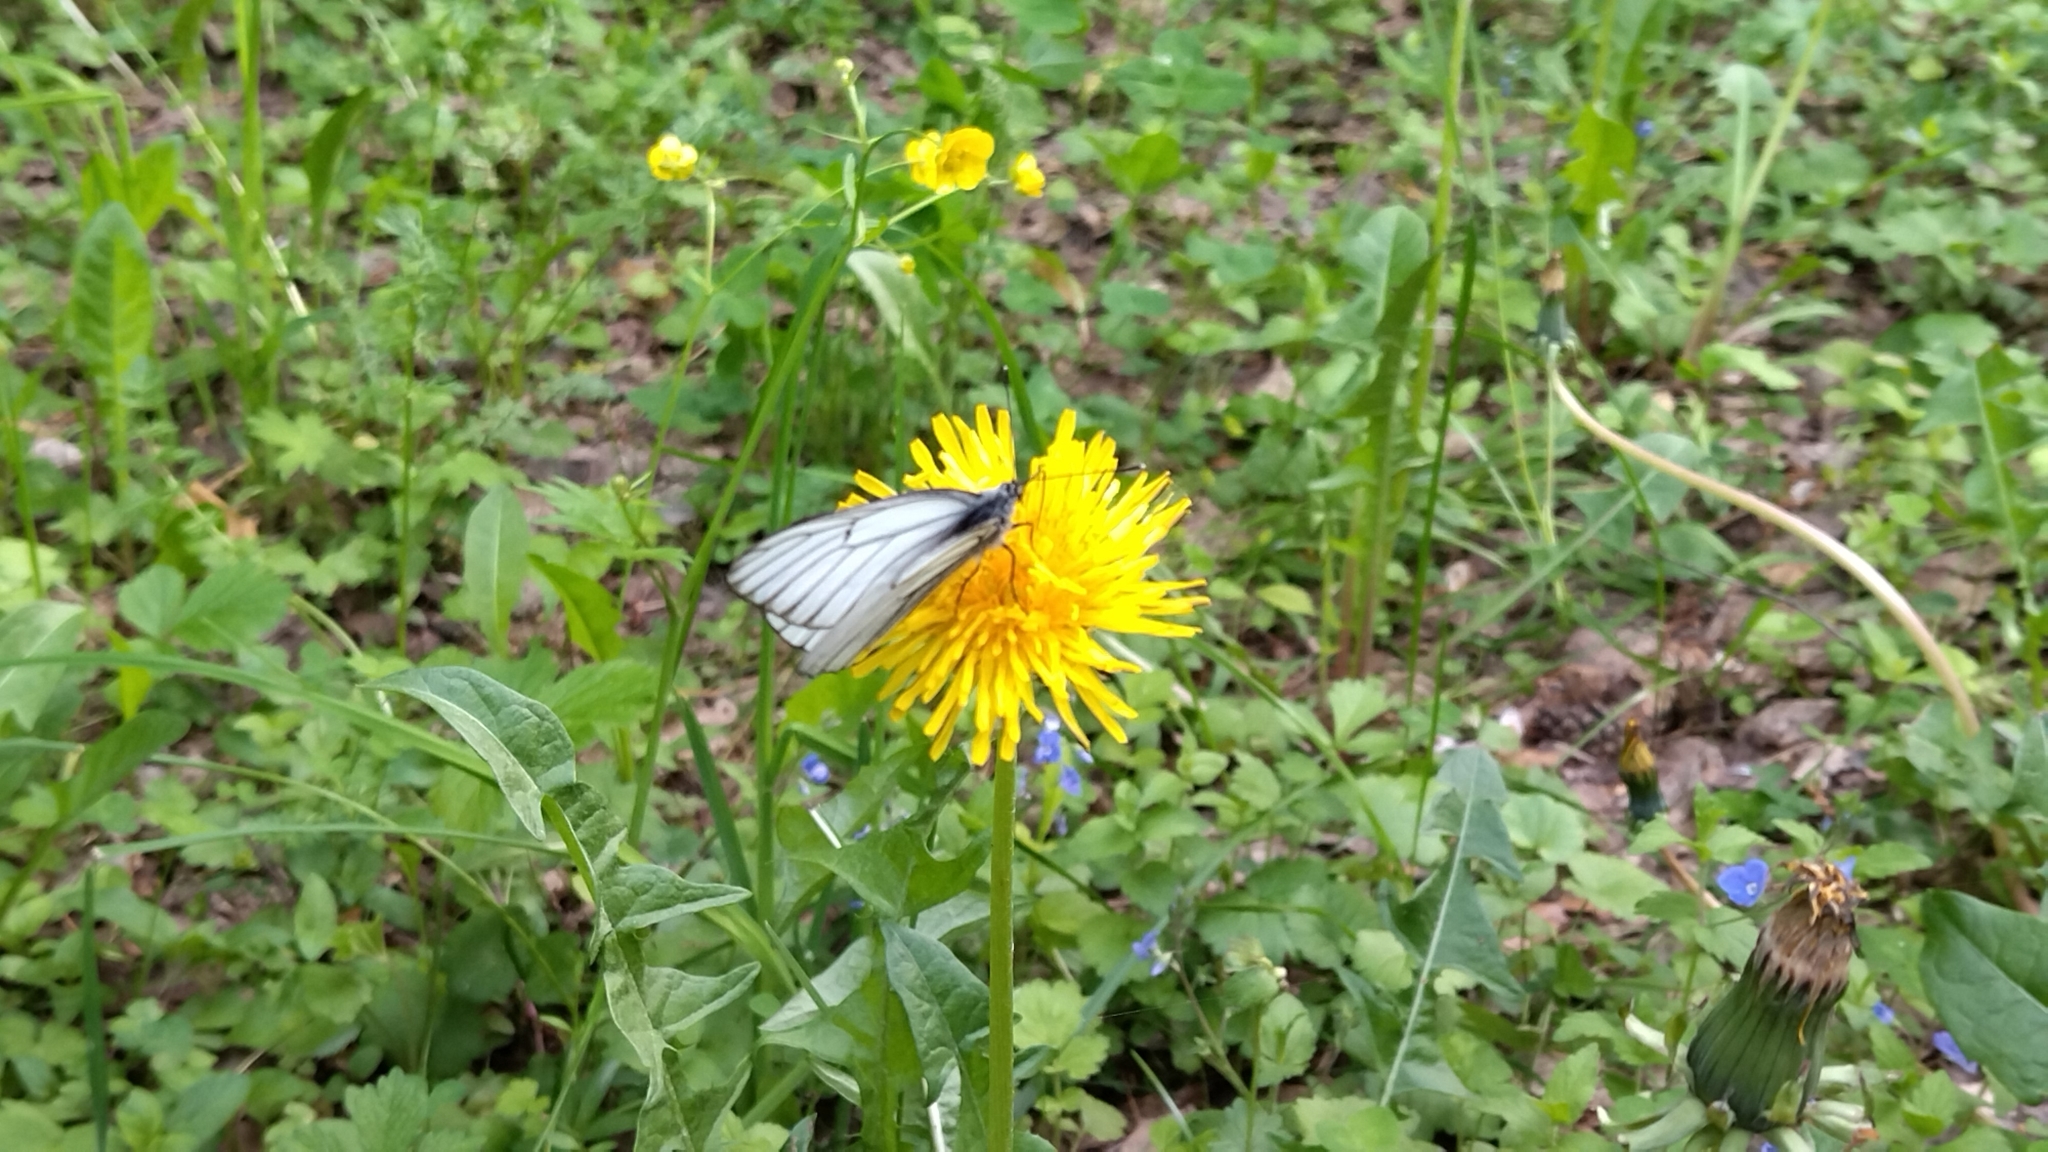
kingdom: Animalia
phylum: Arthropoda
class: Insecta
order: Lepidoptera
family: Pieridae
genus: Aporia
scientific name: Aporia crataegi
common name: Black-veined white
